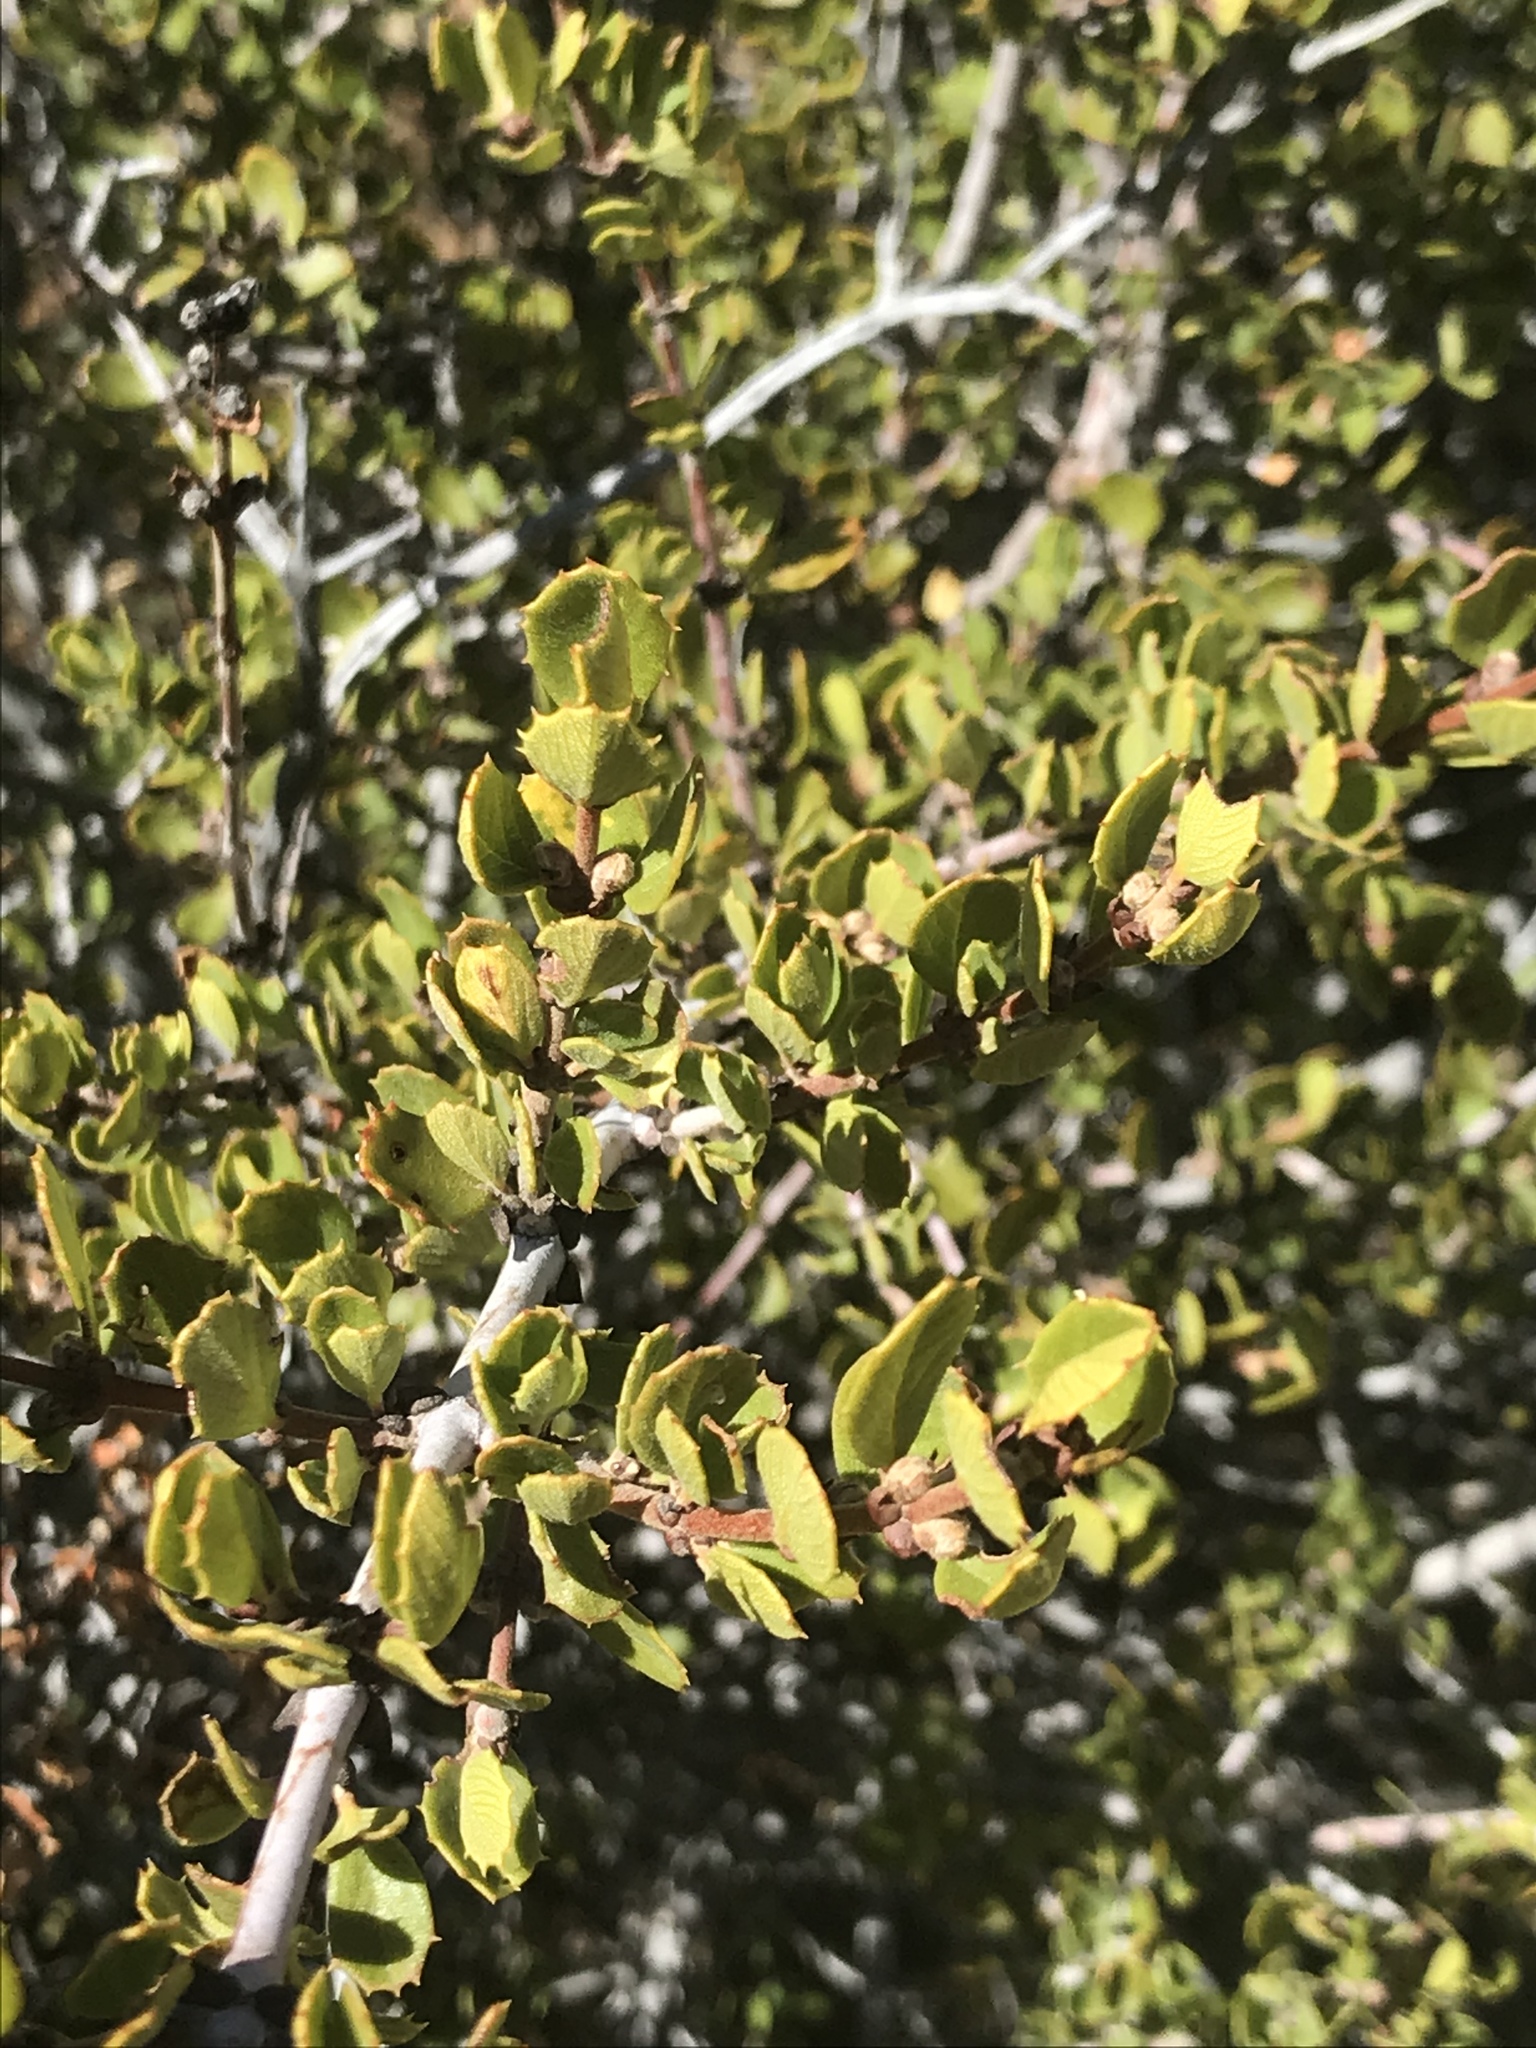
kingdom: Plantae
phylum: Tracheophyta
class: Magnoliopsida
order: Rosales
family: Rhamnaceae
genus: Ceanothus
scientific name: Ceanothus perplexans
